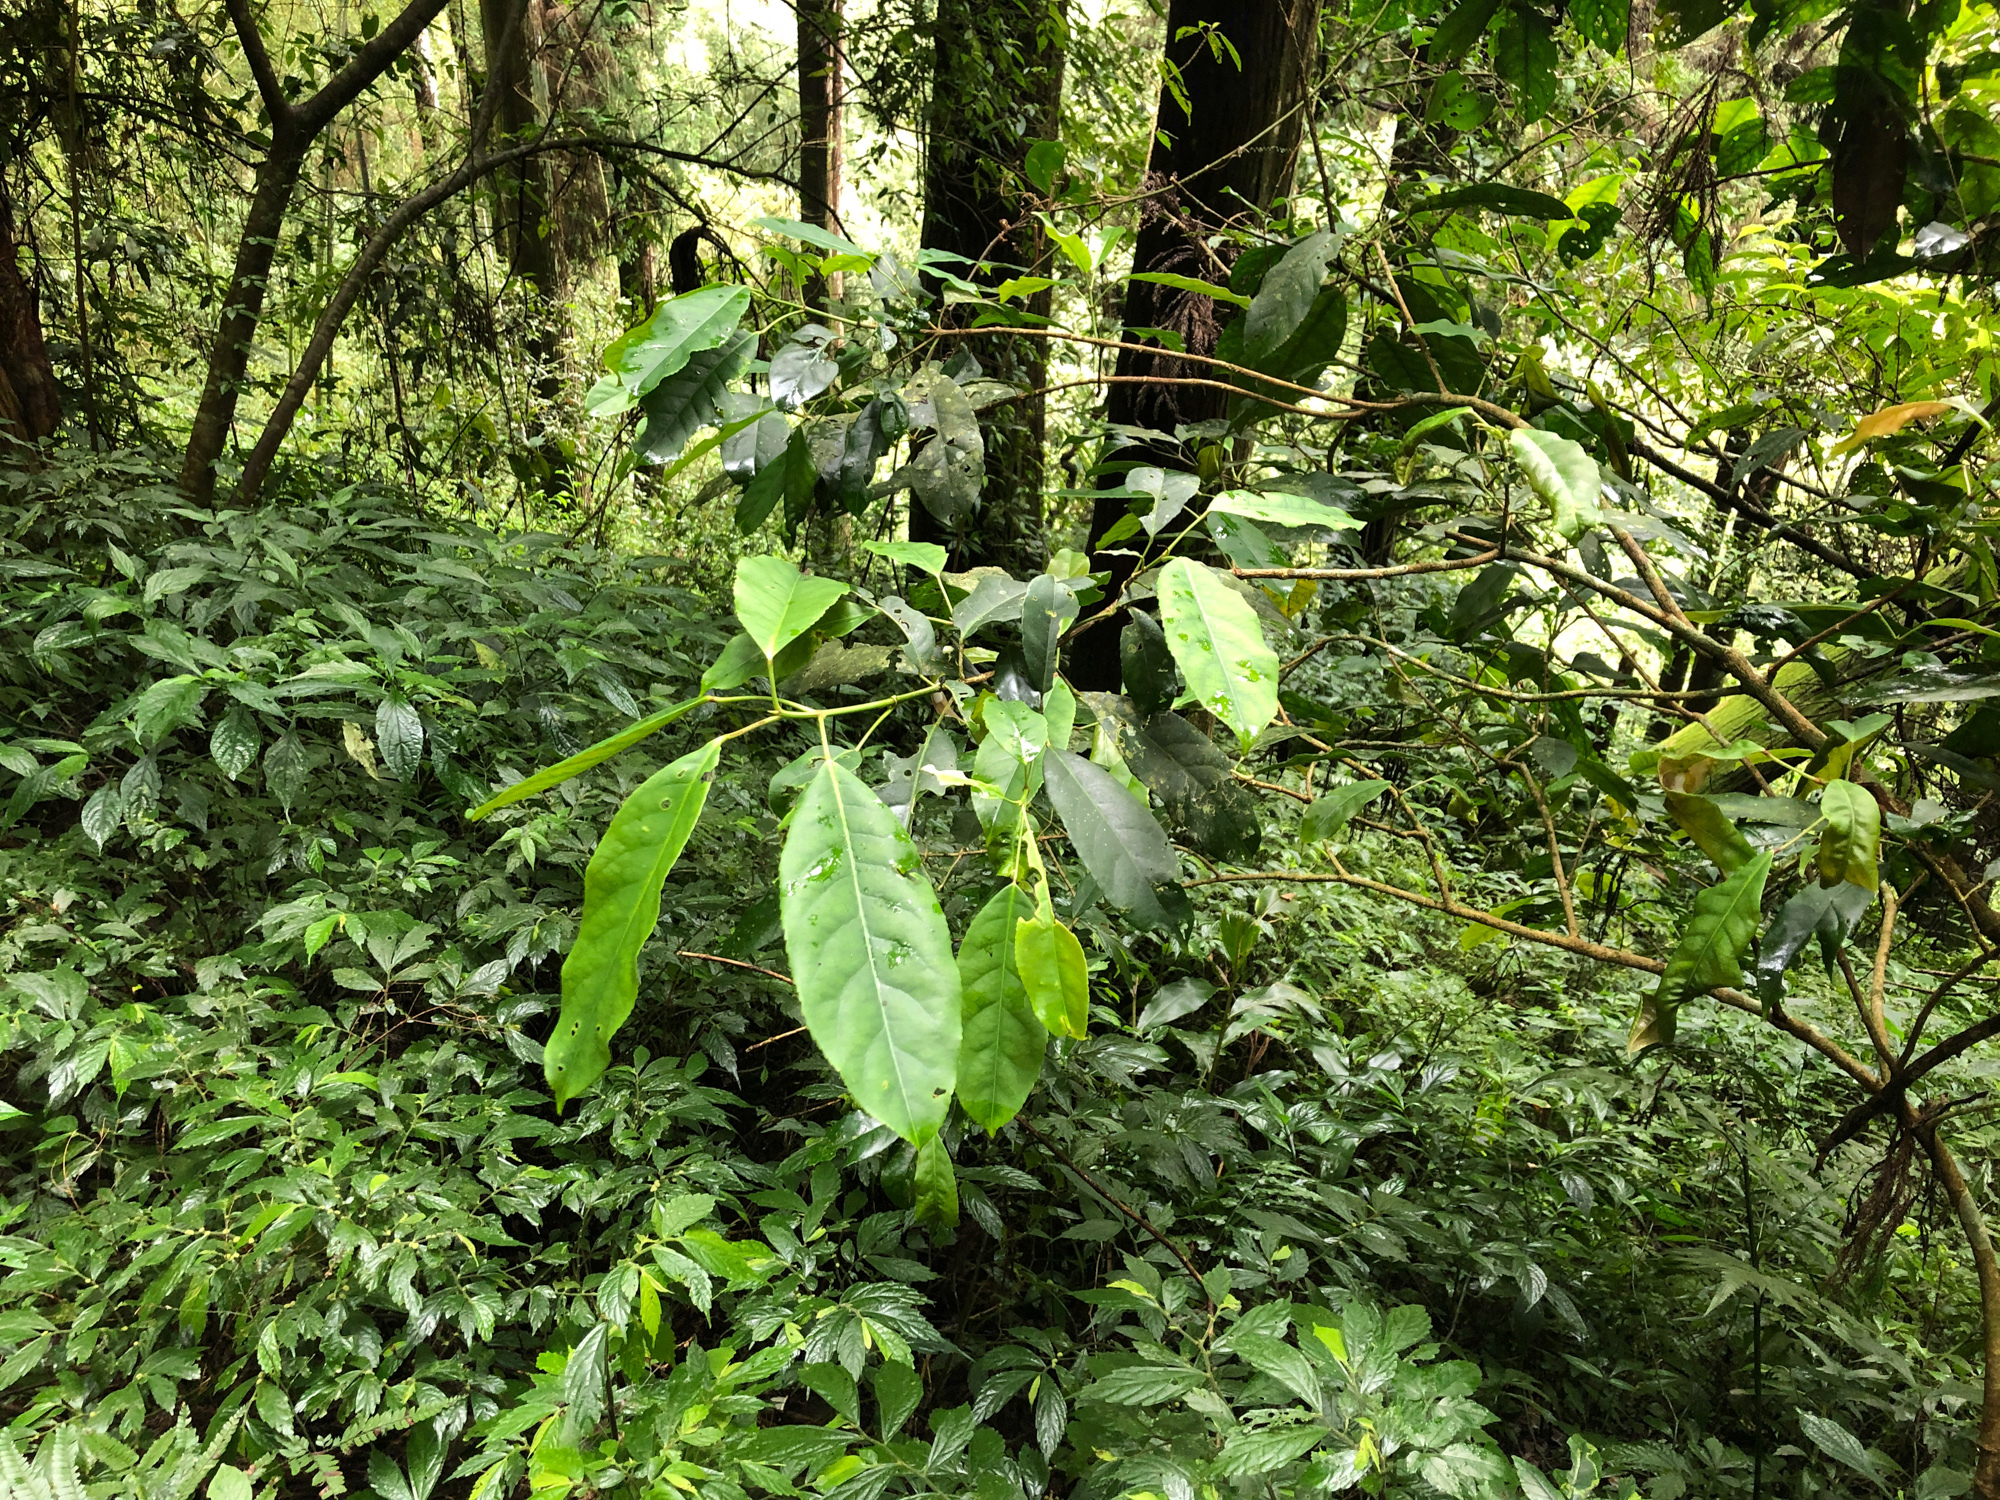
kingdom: Plantae
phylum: Tracheophyta
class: Magnoliopsida
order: Crossosomatales
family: Staphyleaceae
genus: Turpinia
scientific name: Turpinia formosana
